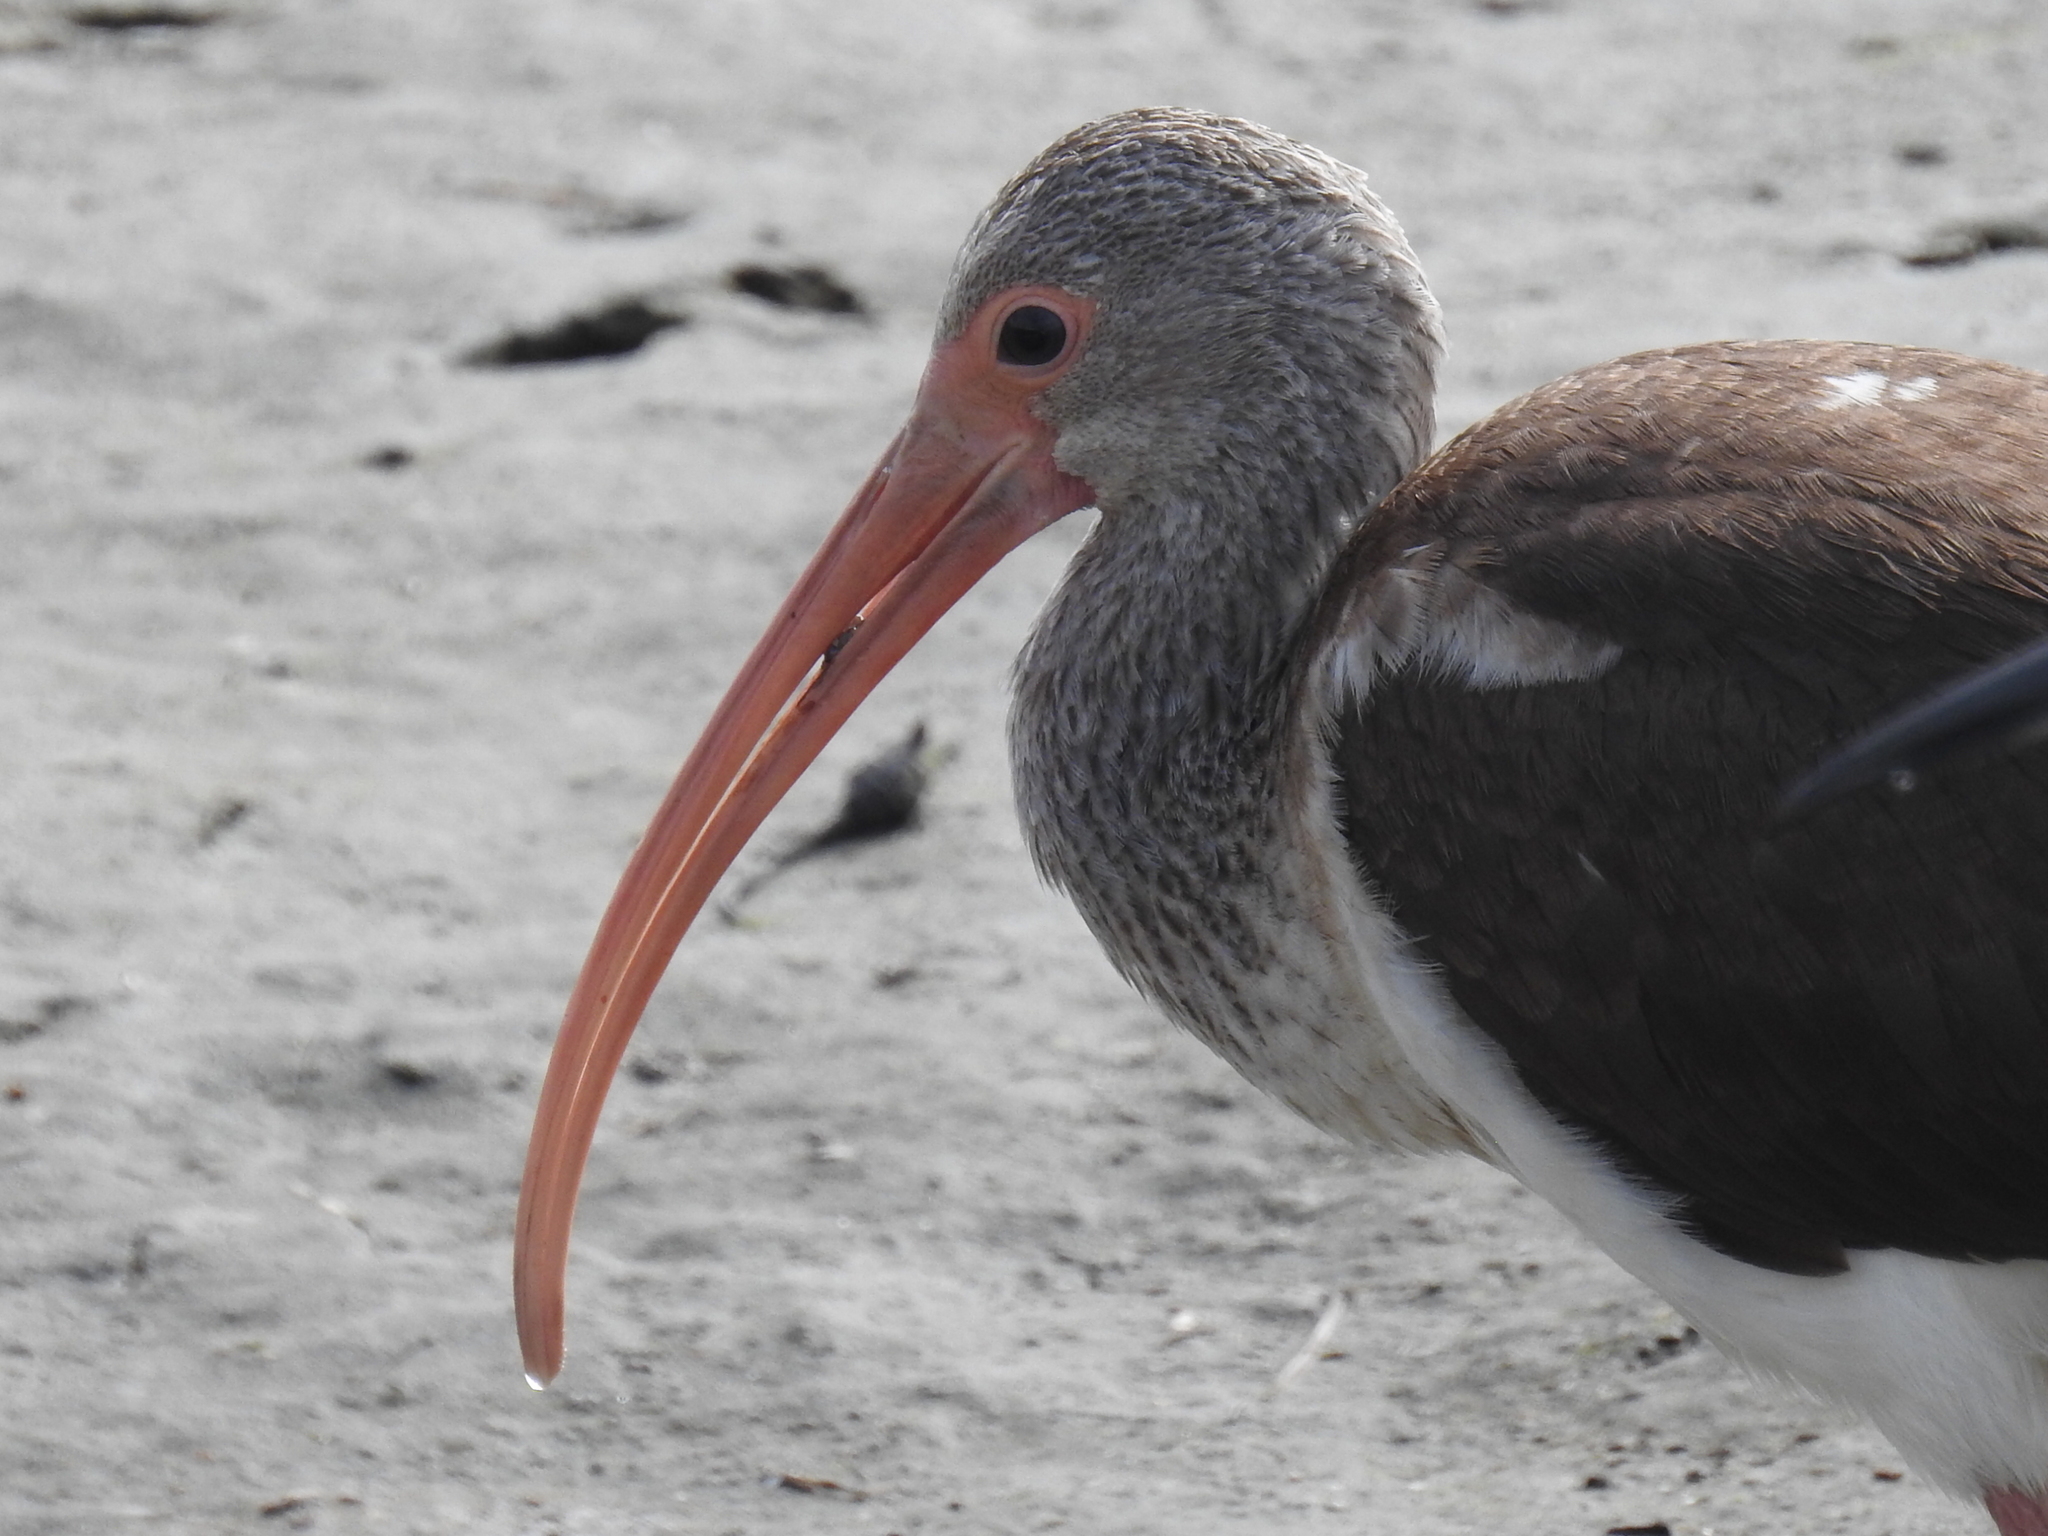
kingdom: Animalia
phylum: Chordata
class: Aves
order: Pelecaniformes
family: Threskiornithidae
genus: Eudocimus
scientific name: Eudocimus albus
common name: White ibis
